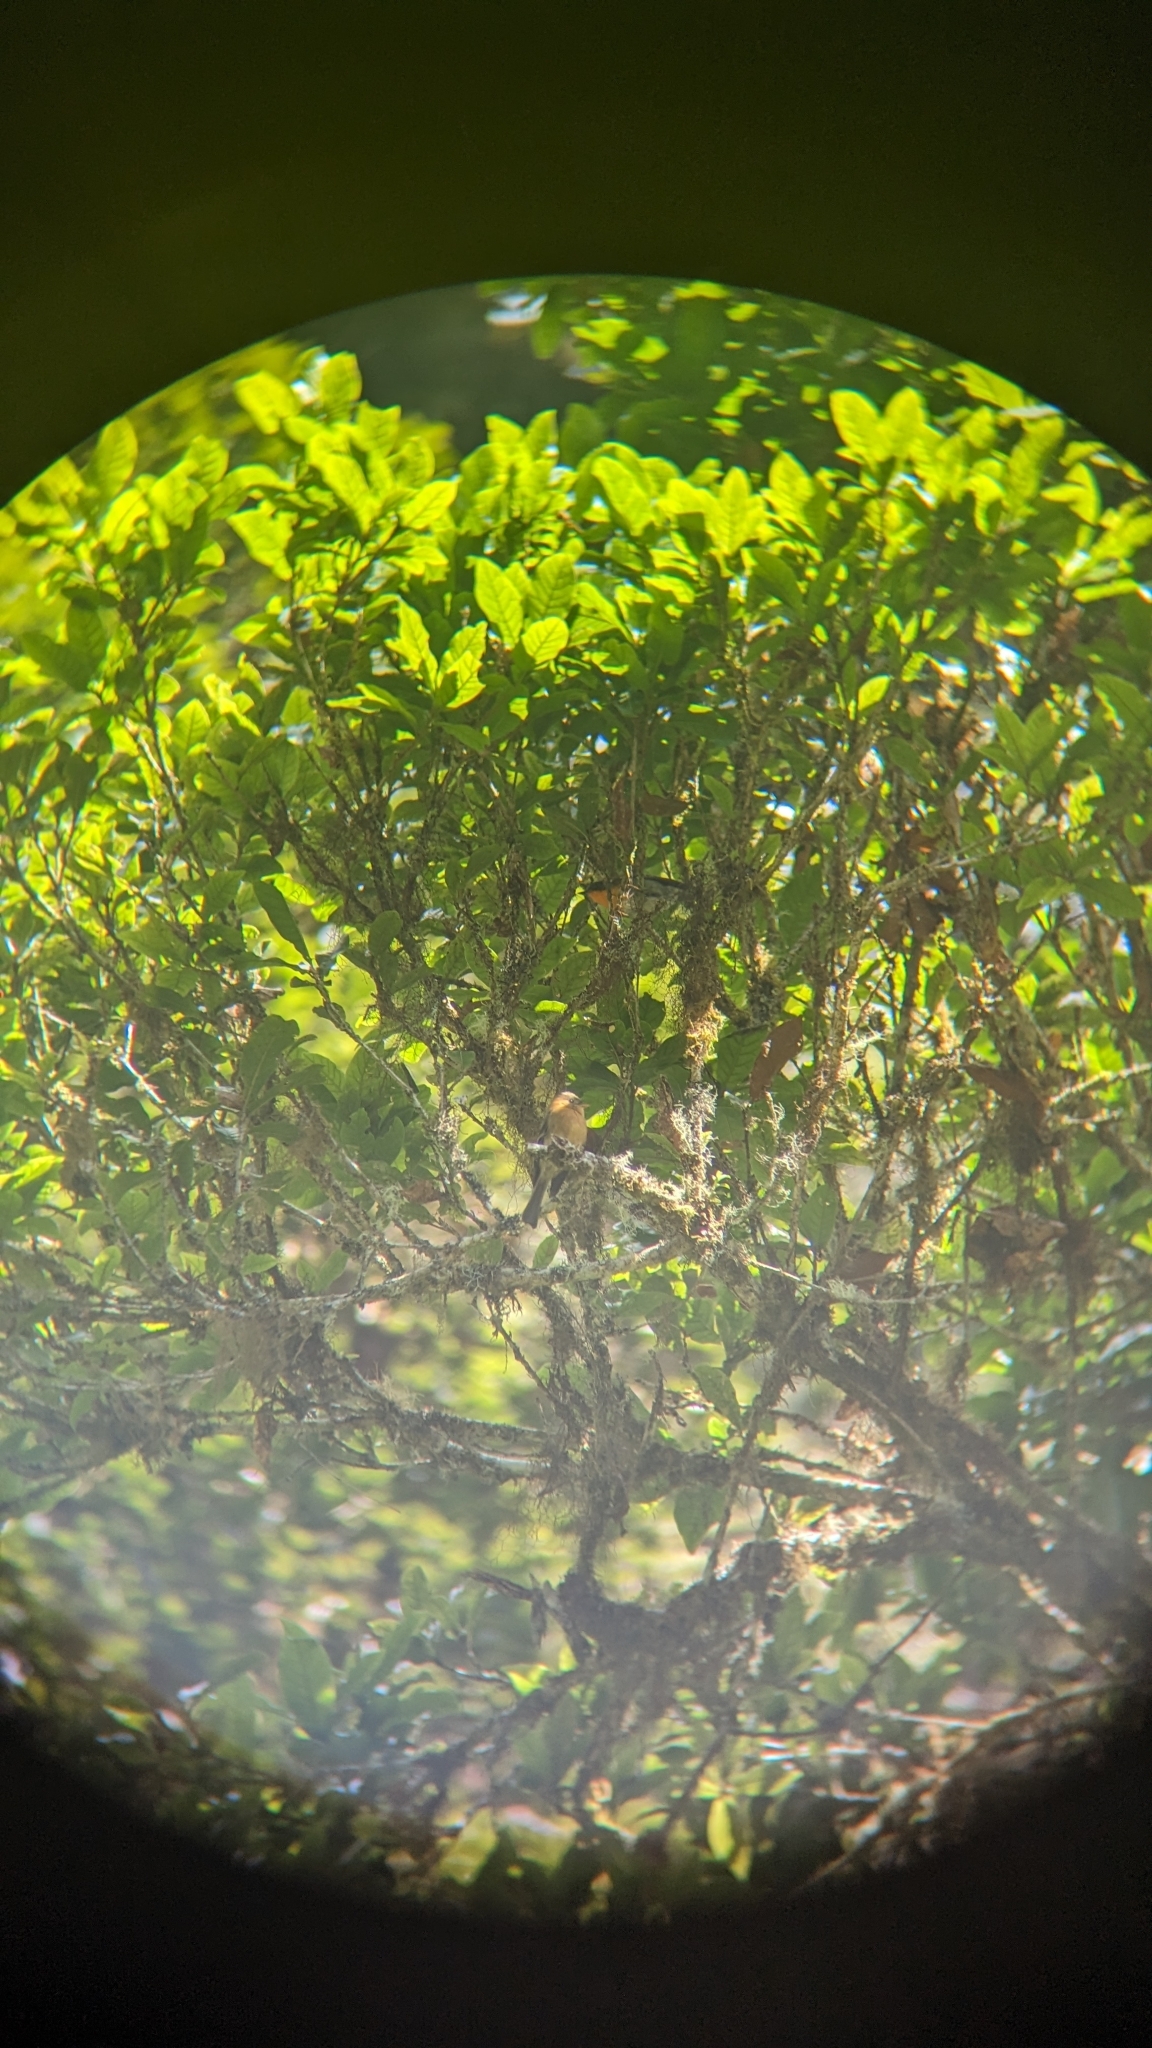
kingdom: Animalia
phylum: Chordata
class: Aves
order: Passeriformes
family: Tyrannidae
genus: Mitrephanes
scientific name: Mitrephanes phaeocercus
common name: Northern tufted flycatcher
